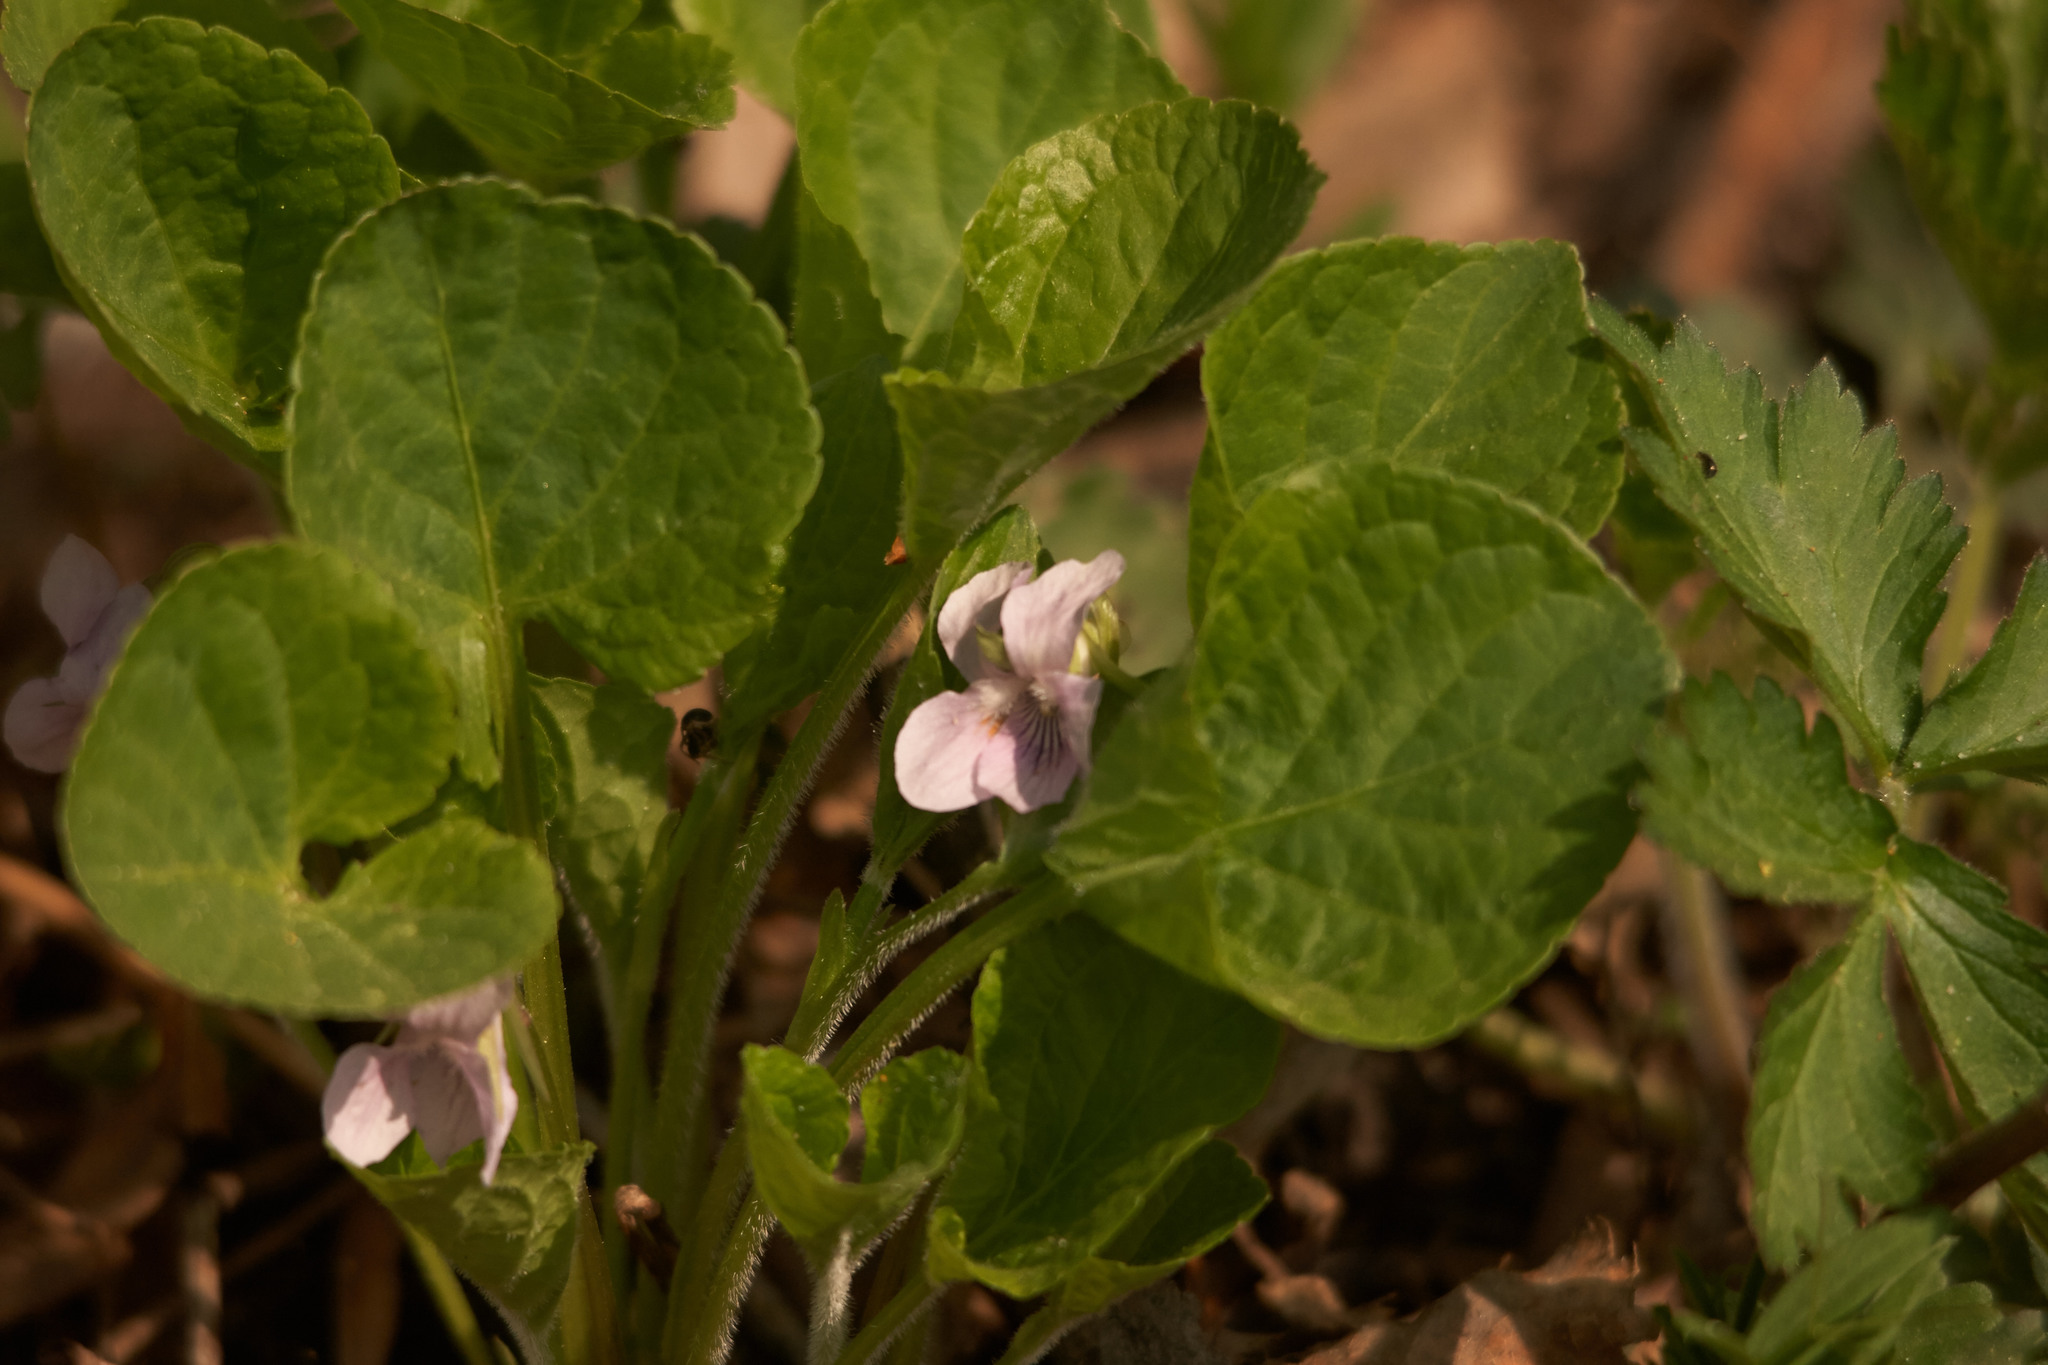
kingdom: Plantae
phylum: Tracheophyta
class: Magnoliopsida
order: Malpighiales
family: Violaceae
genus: Viola
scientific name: Viola mirabilis
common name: Wonder violet
